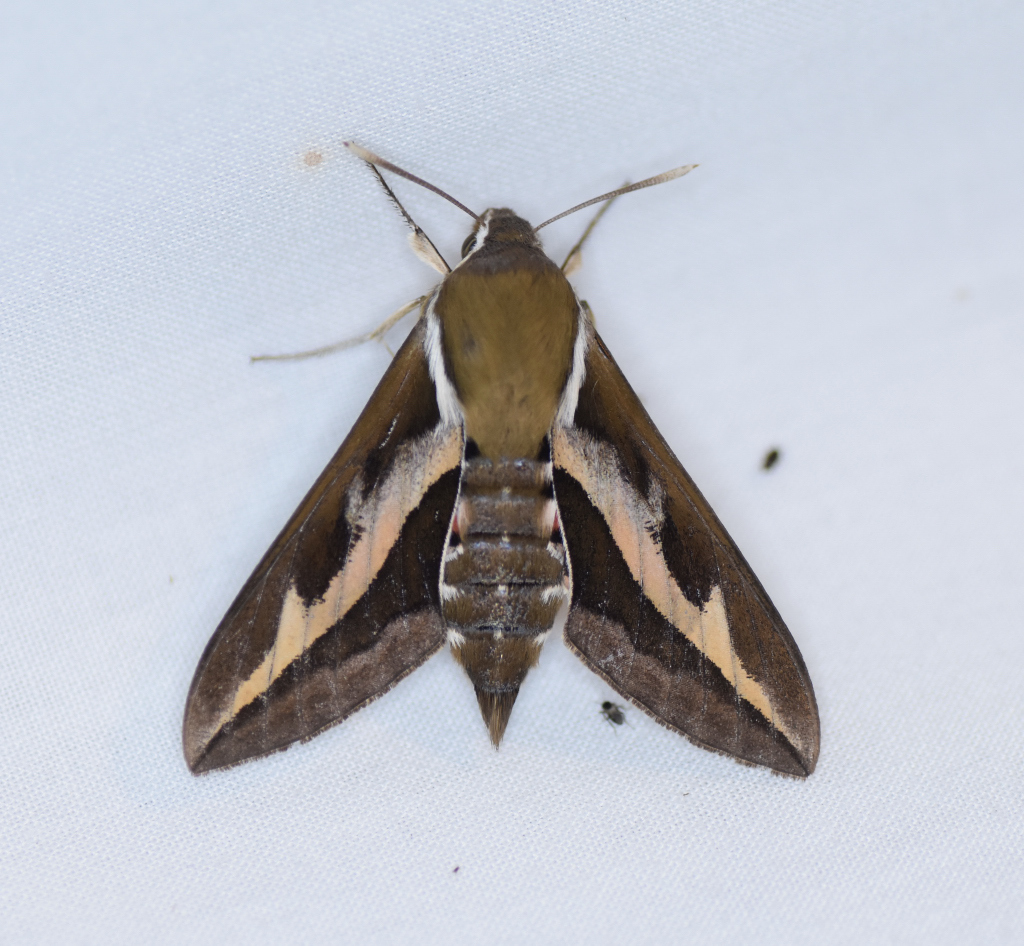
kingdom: Animalia
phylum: Arthropoda
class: Insecta
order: Lepidoptera
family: Sphingidae
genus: Hyles
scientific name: Hyles gallii
